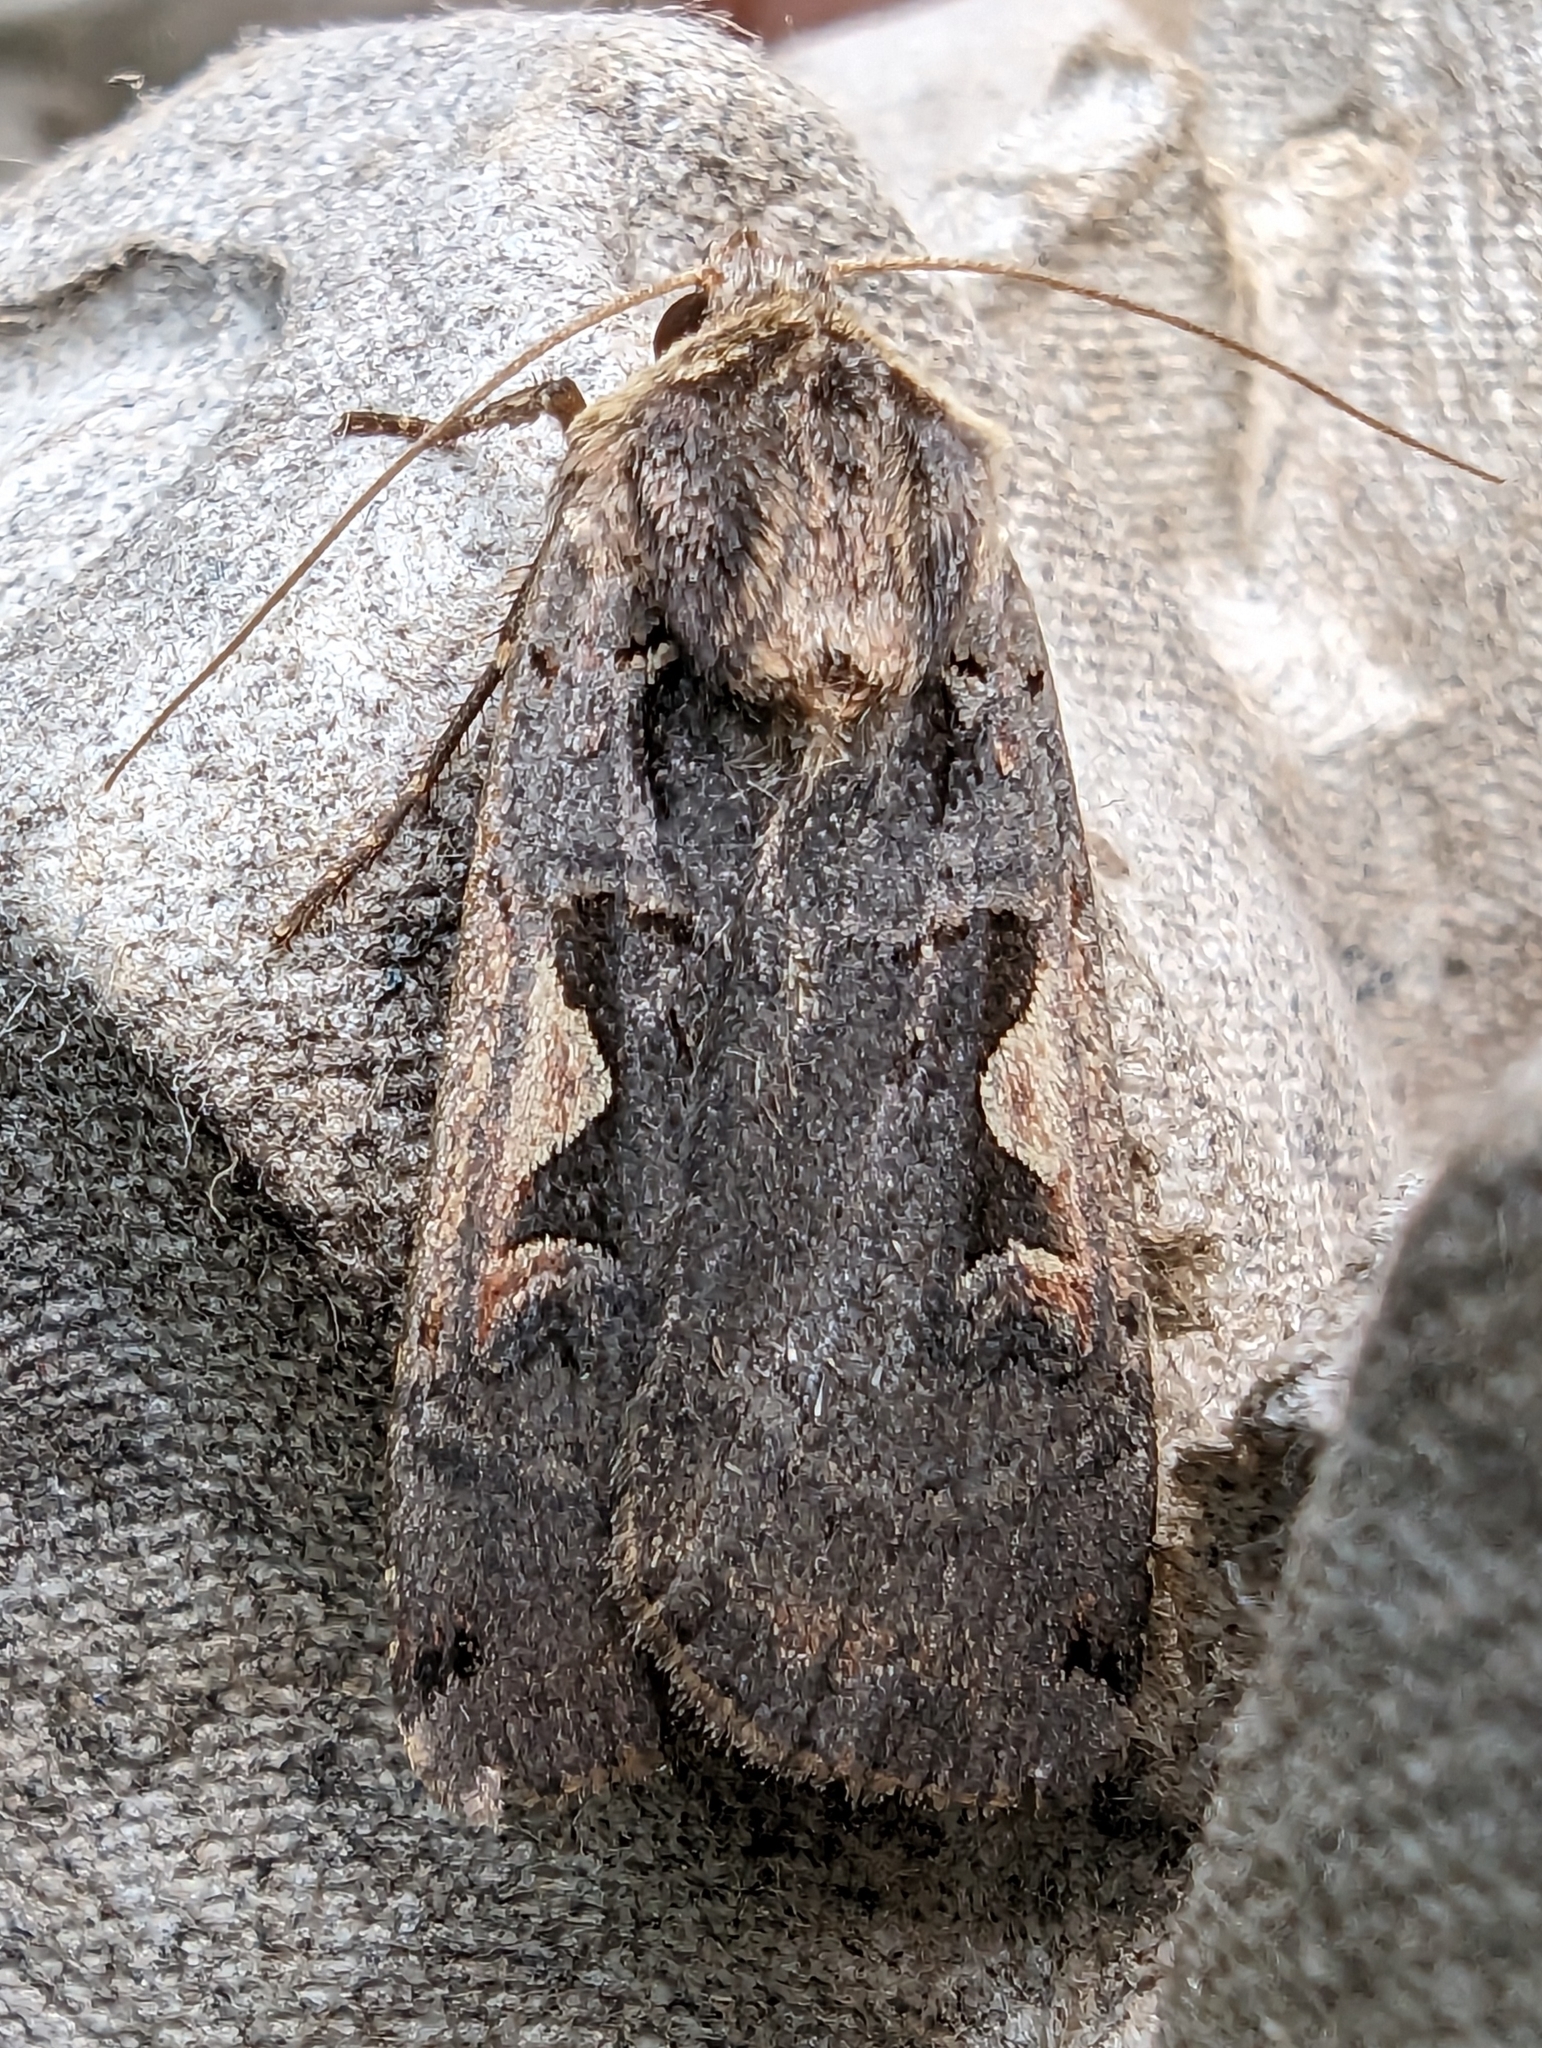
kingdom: Animalia
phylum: Arthropoda
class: Insecta
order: Lepidoptera
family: Noctuidae
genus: Xestia
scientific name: Xestia c-nigrum
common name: Setaceous hebrew character
